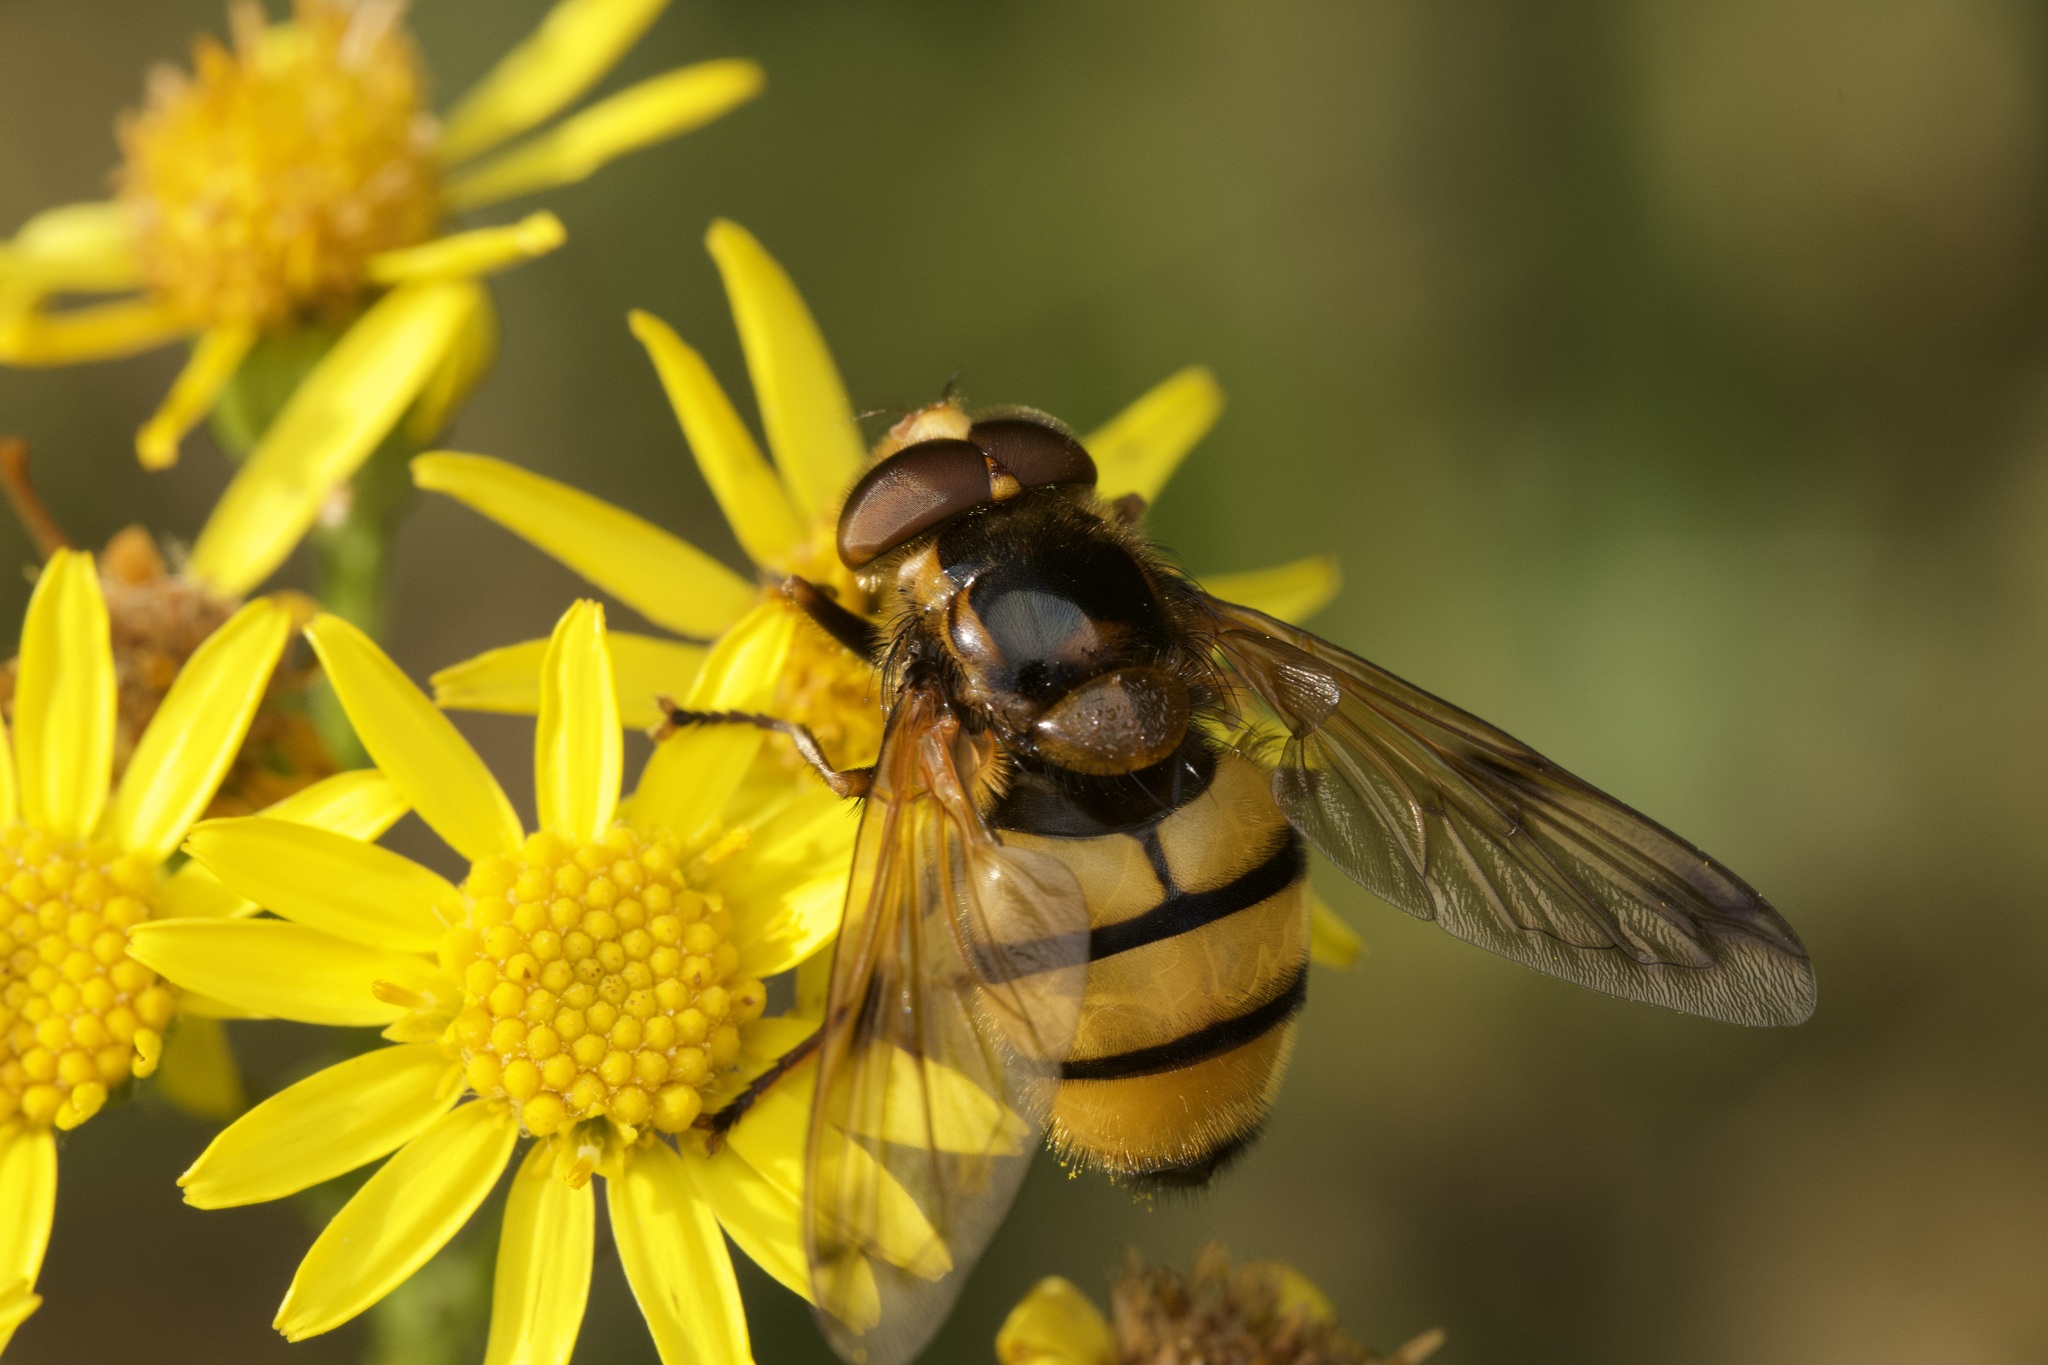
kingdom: Animalia
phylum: Arthropoda
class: Insecta
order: Diptera
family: Syrphidae
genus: Volucella
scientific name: Volucella inanis
